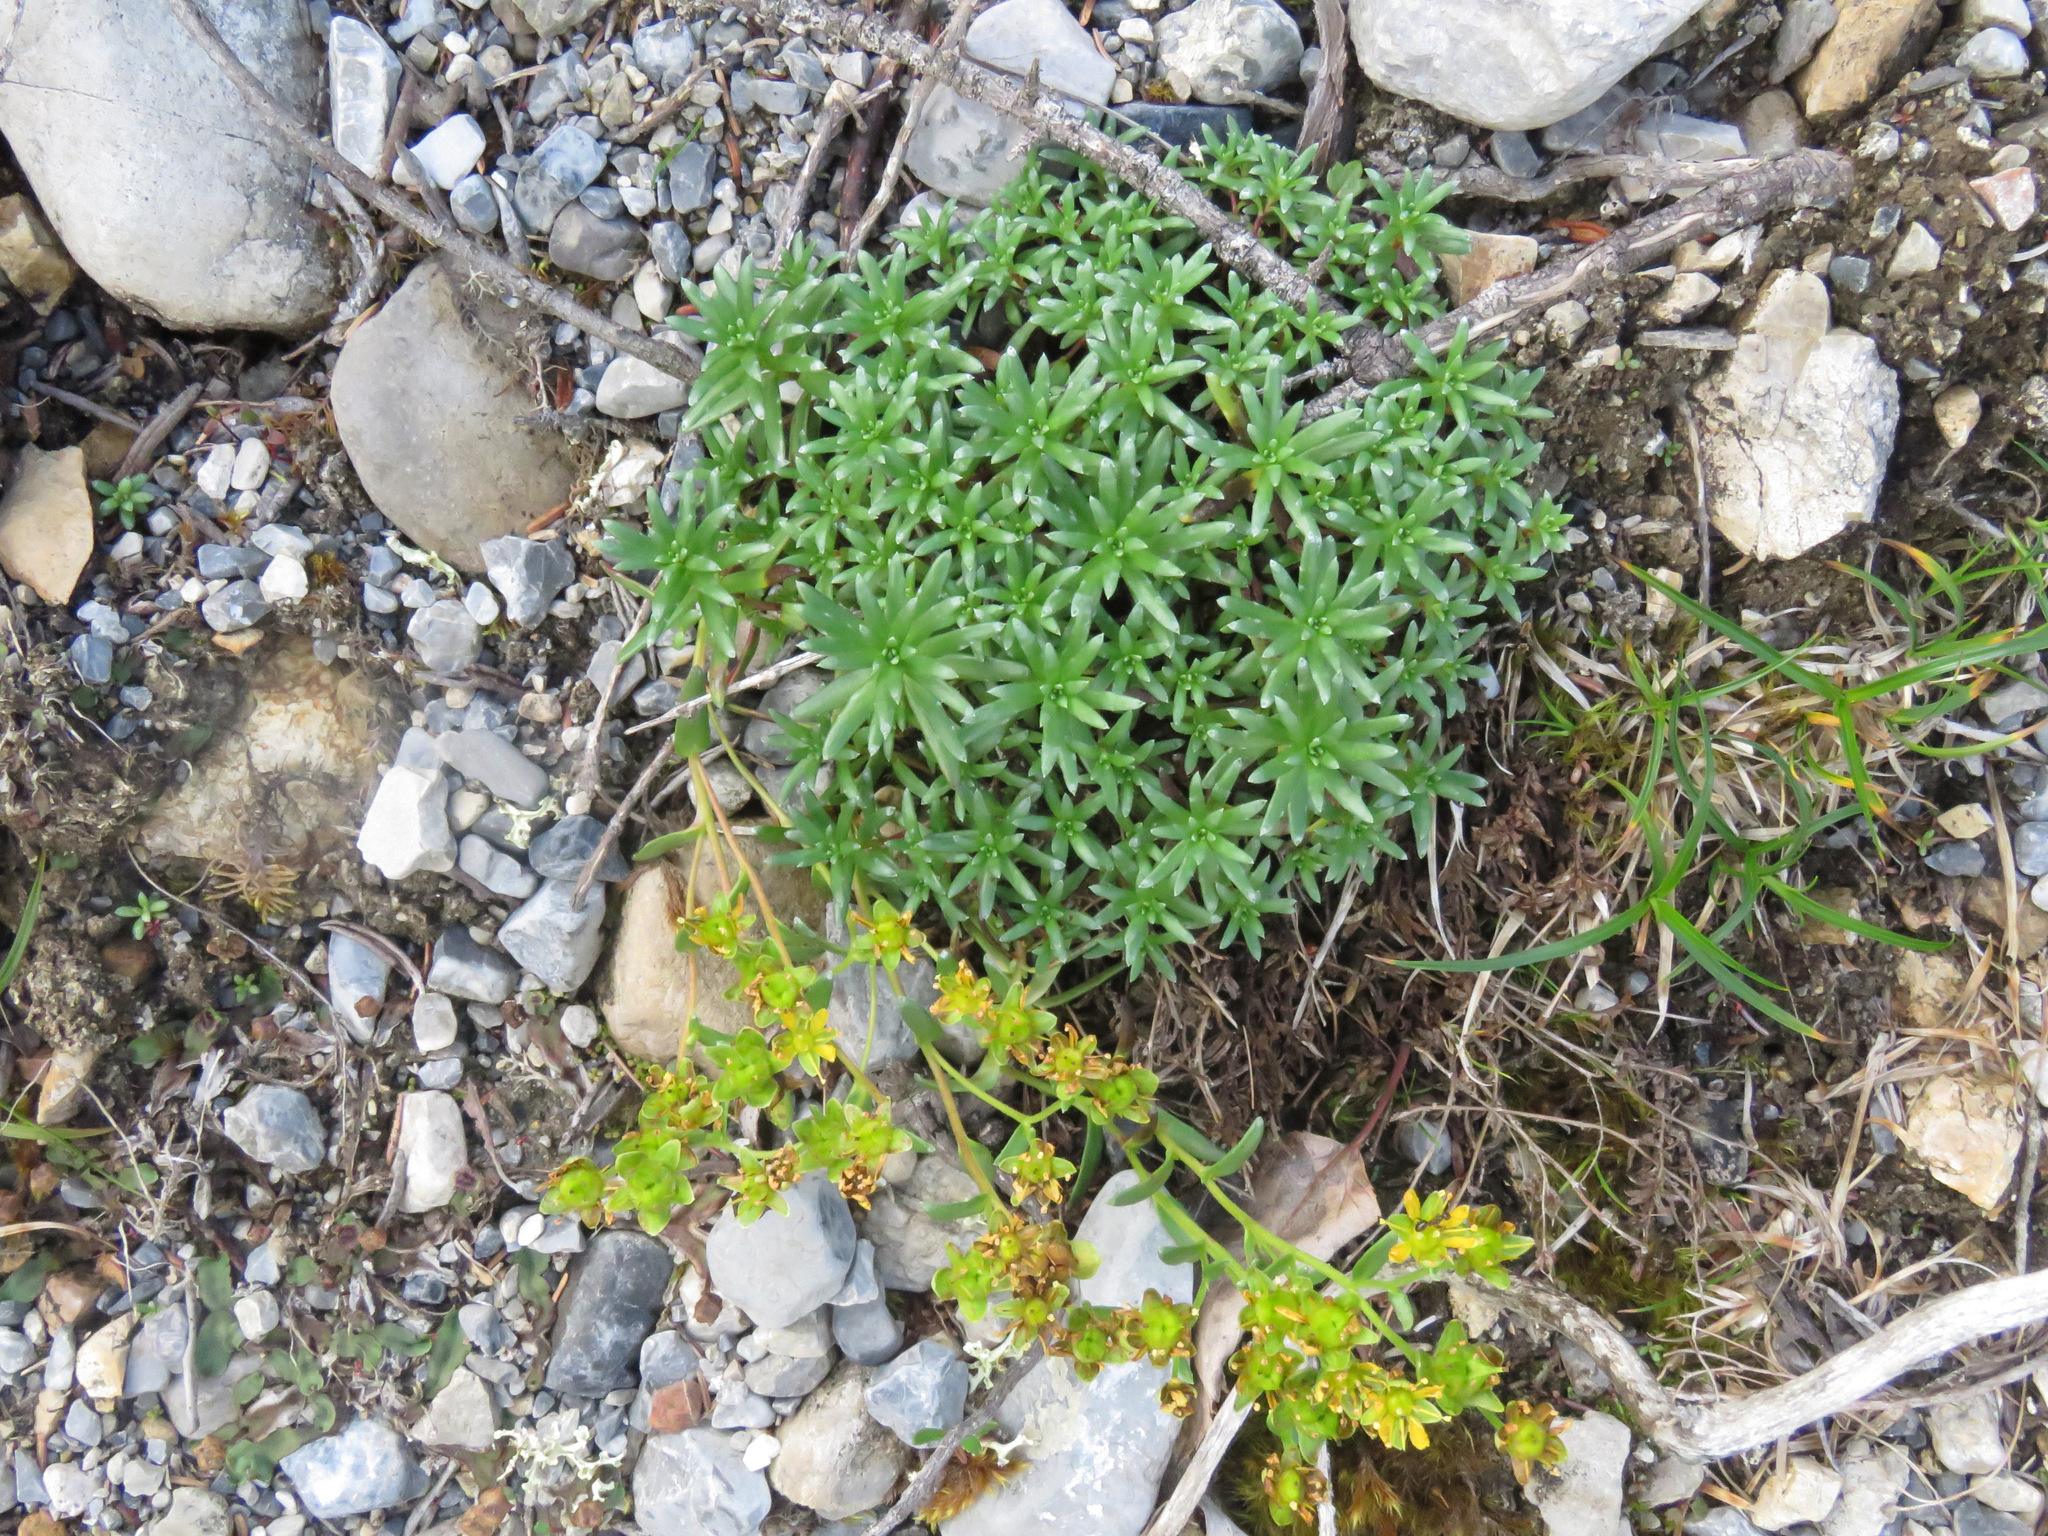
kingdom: Plantae
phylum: Tracheophyta
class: Magnoliopsida
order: Saxifragales
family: Saxifragaceae
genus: Saxifraga
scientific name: Saxifraga aizoides
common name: Yellow mountain saxifrage
